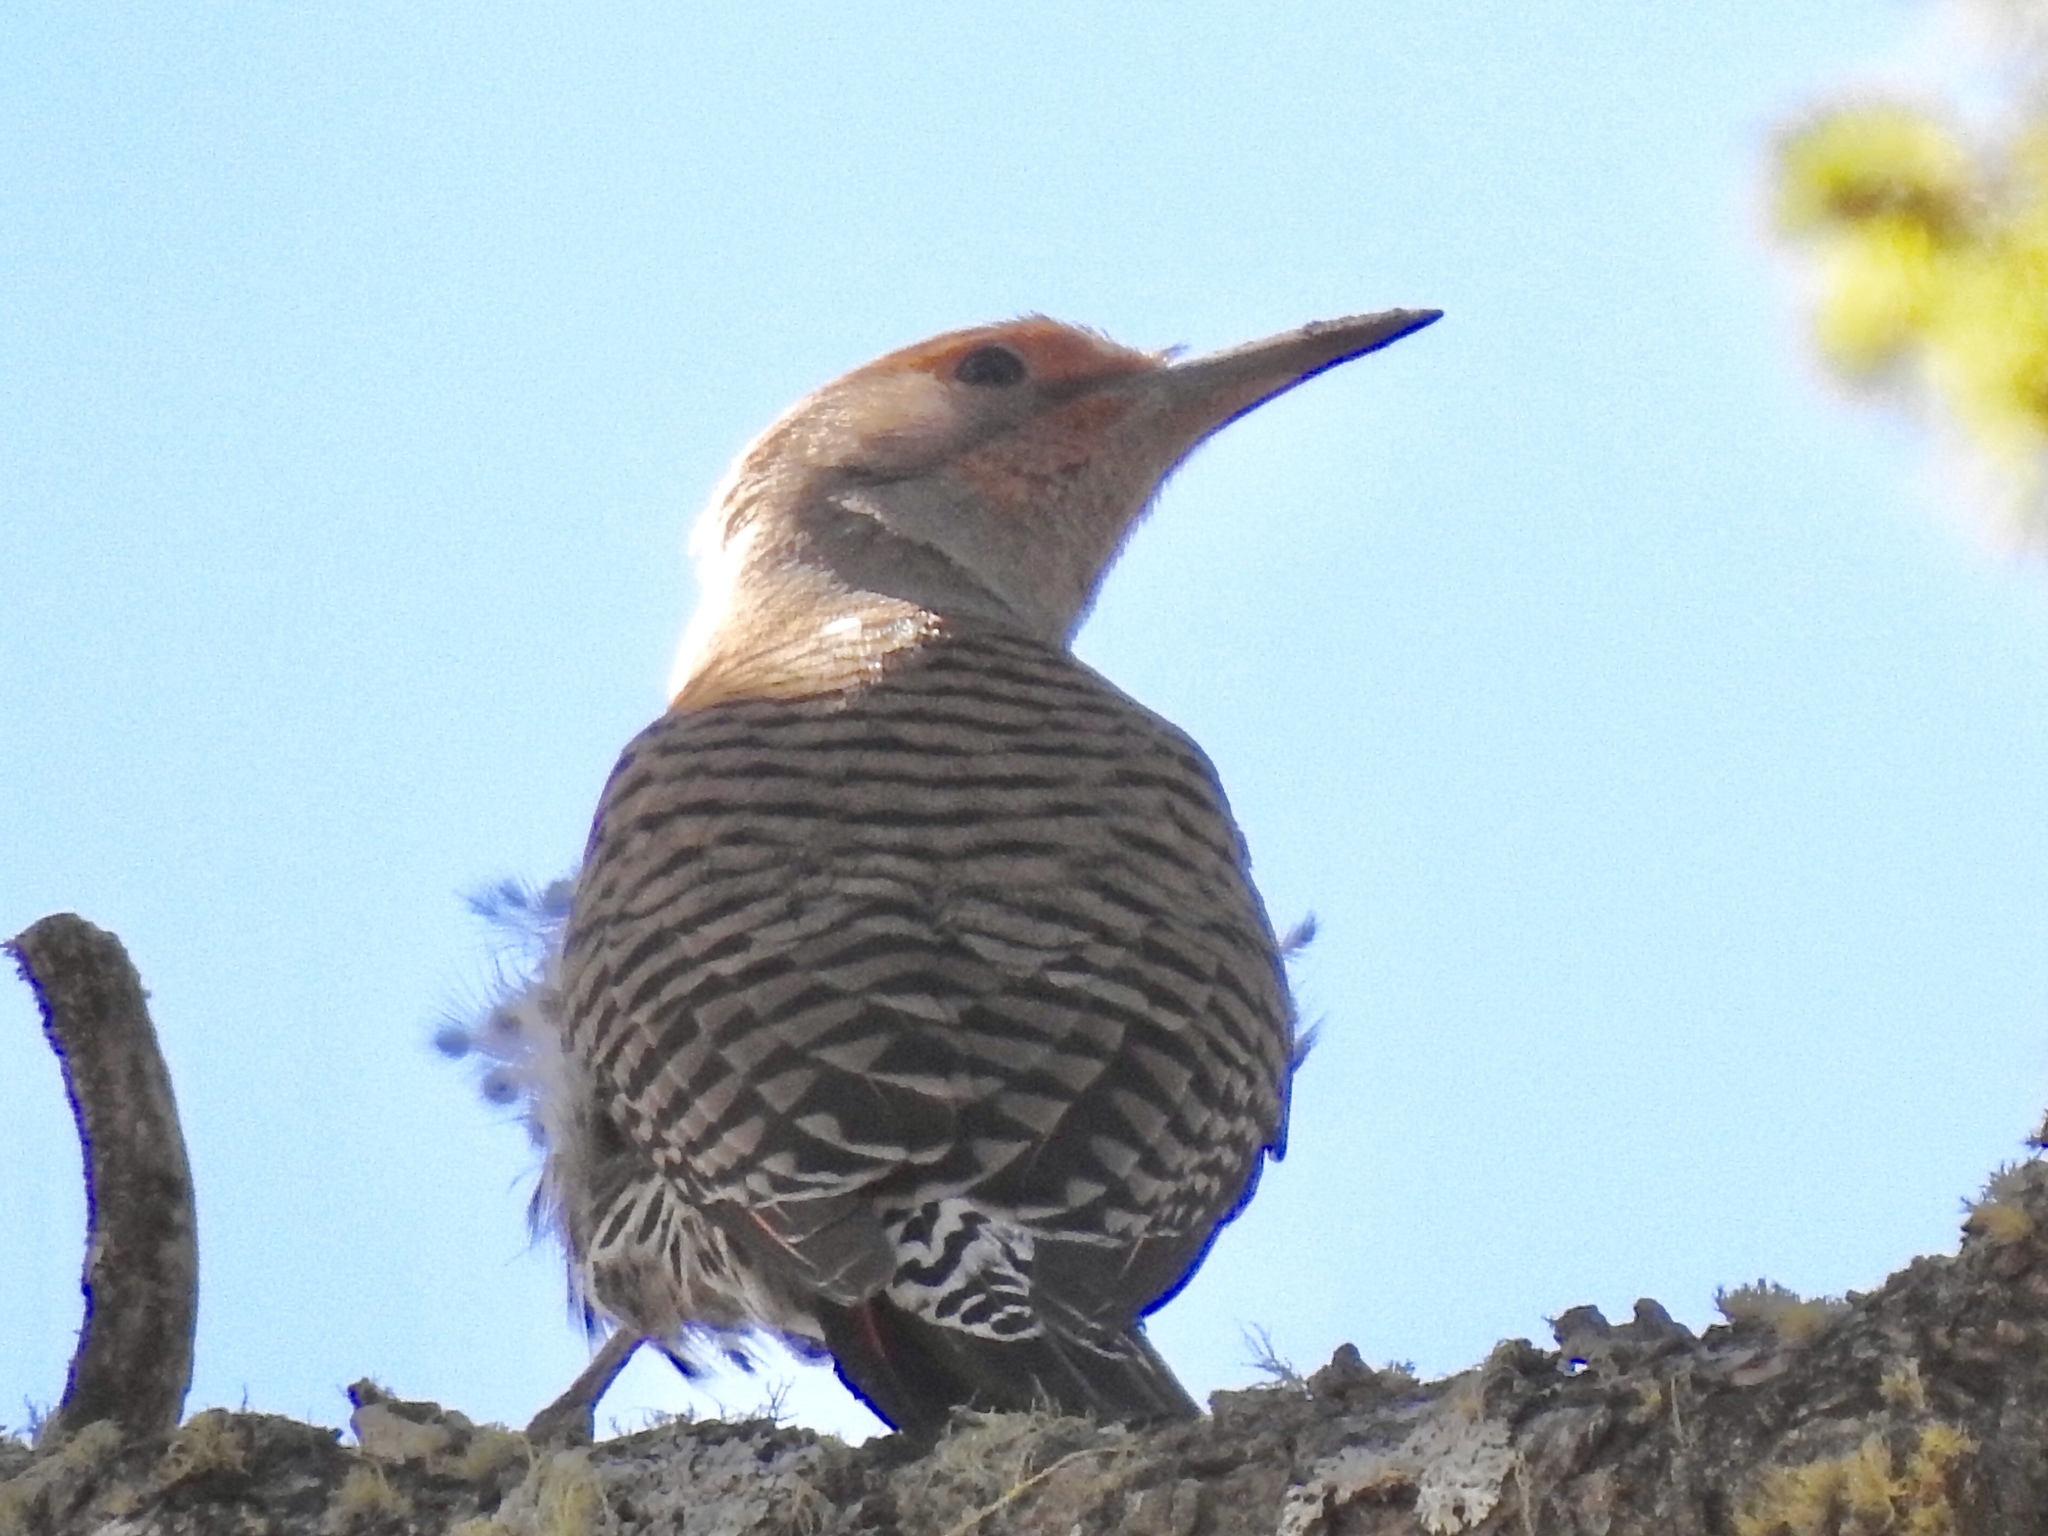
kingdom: Animalia
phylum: Chordata
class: Aves
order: Piciformes
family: Picidae
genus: Colaptes
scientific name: Colaptes auratus
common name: Northern flicker
